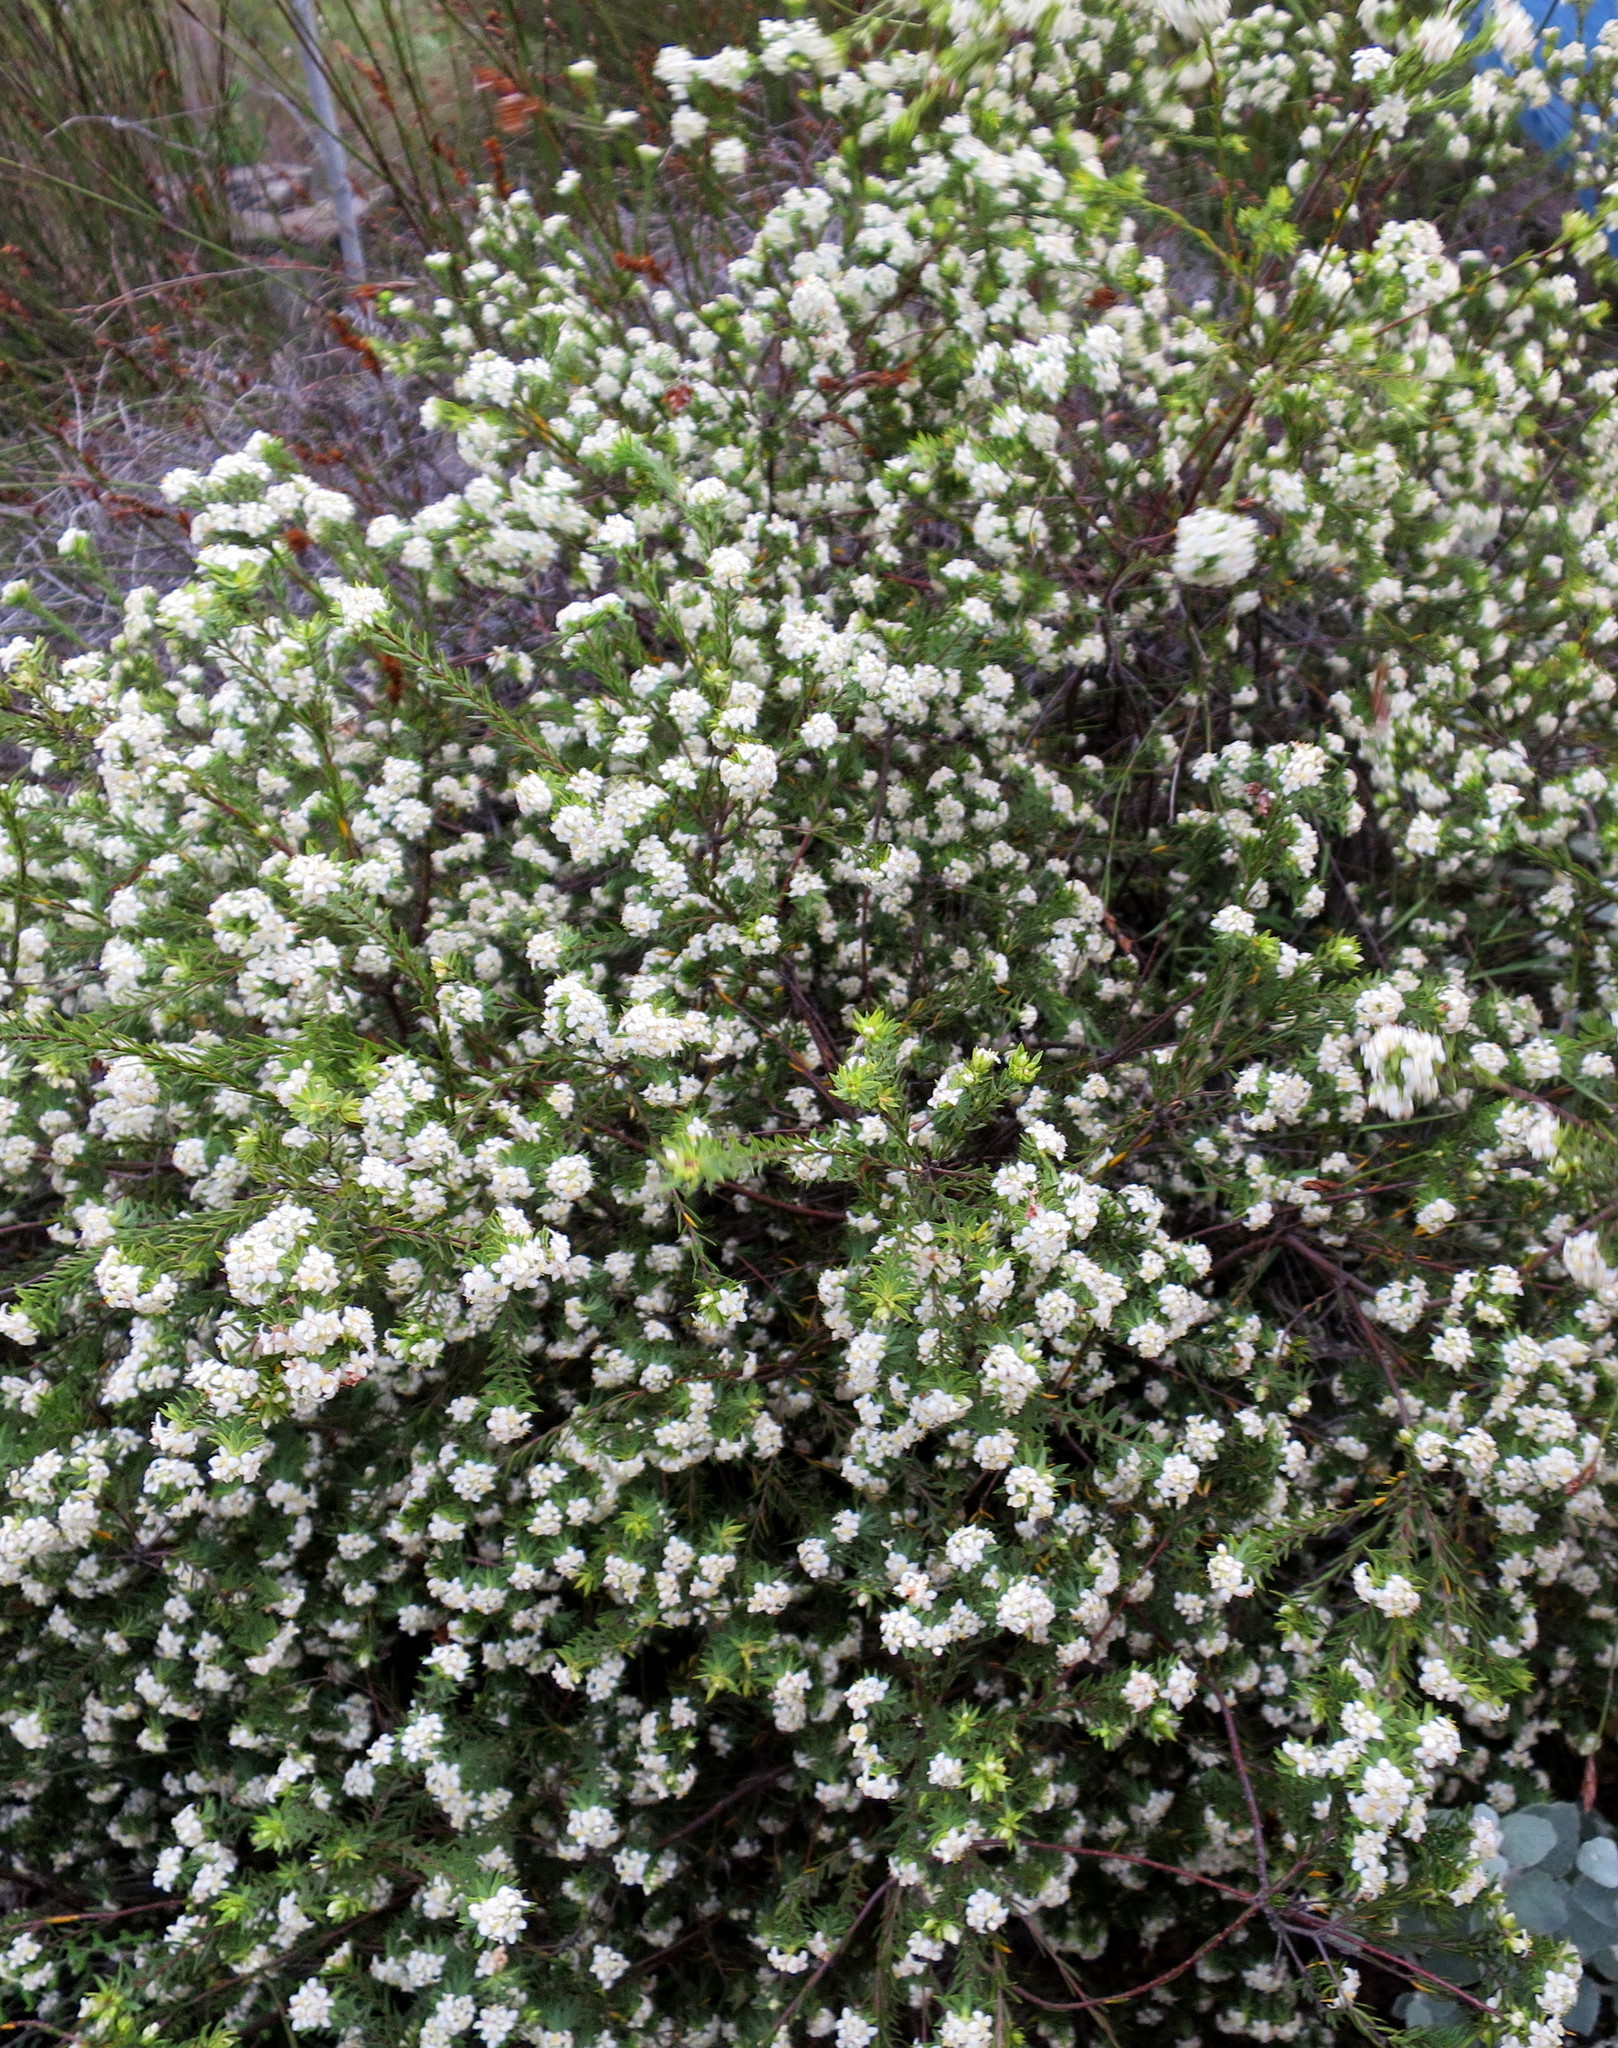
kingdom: Plantae
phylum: Tracheophyta
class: Magnoliopsida
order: Malvales
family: Thymelaeaceae
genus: Lachnaea
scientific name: Lachnaea diosmoides
